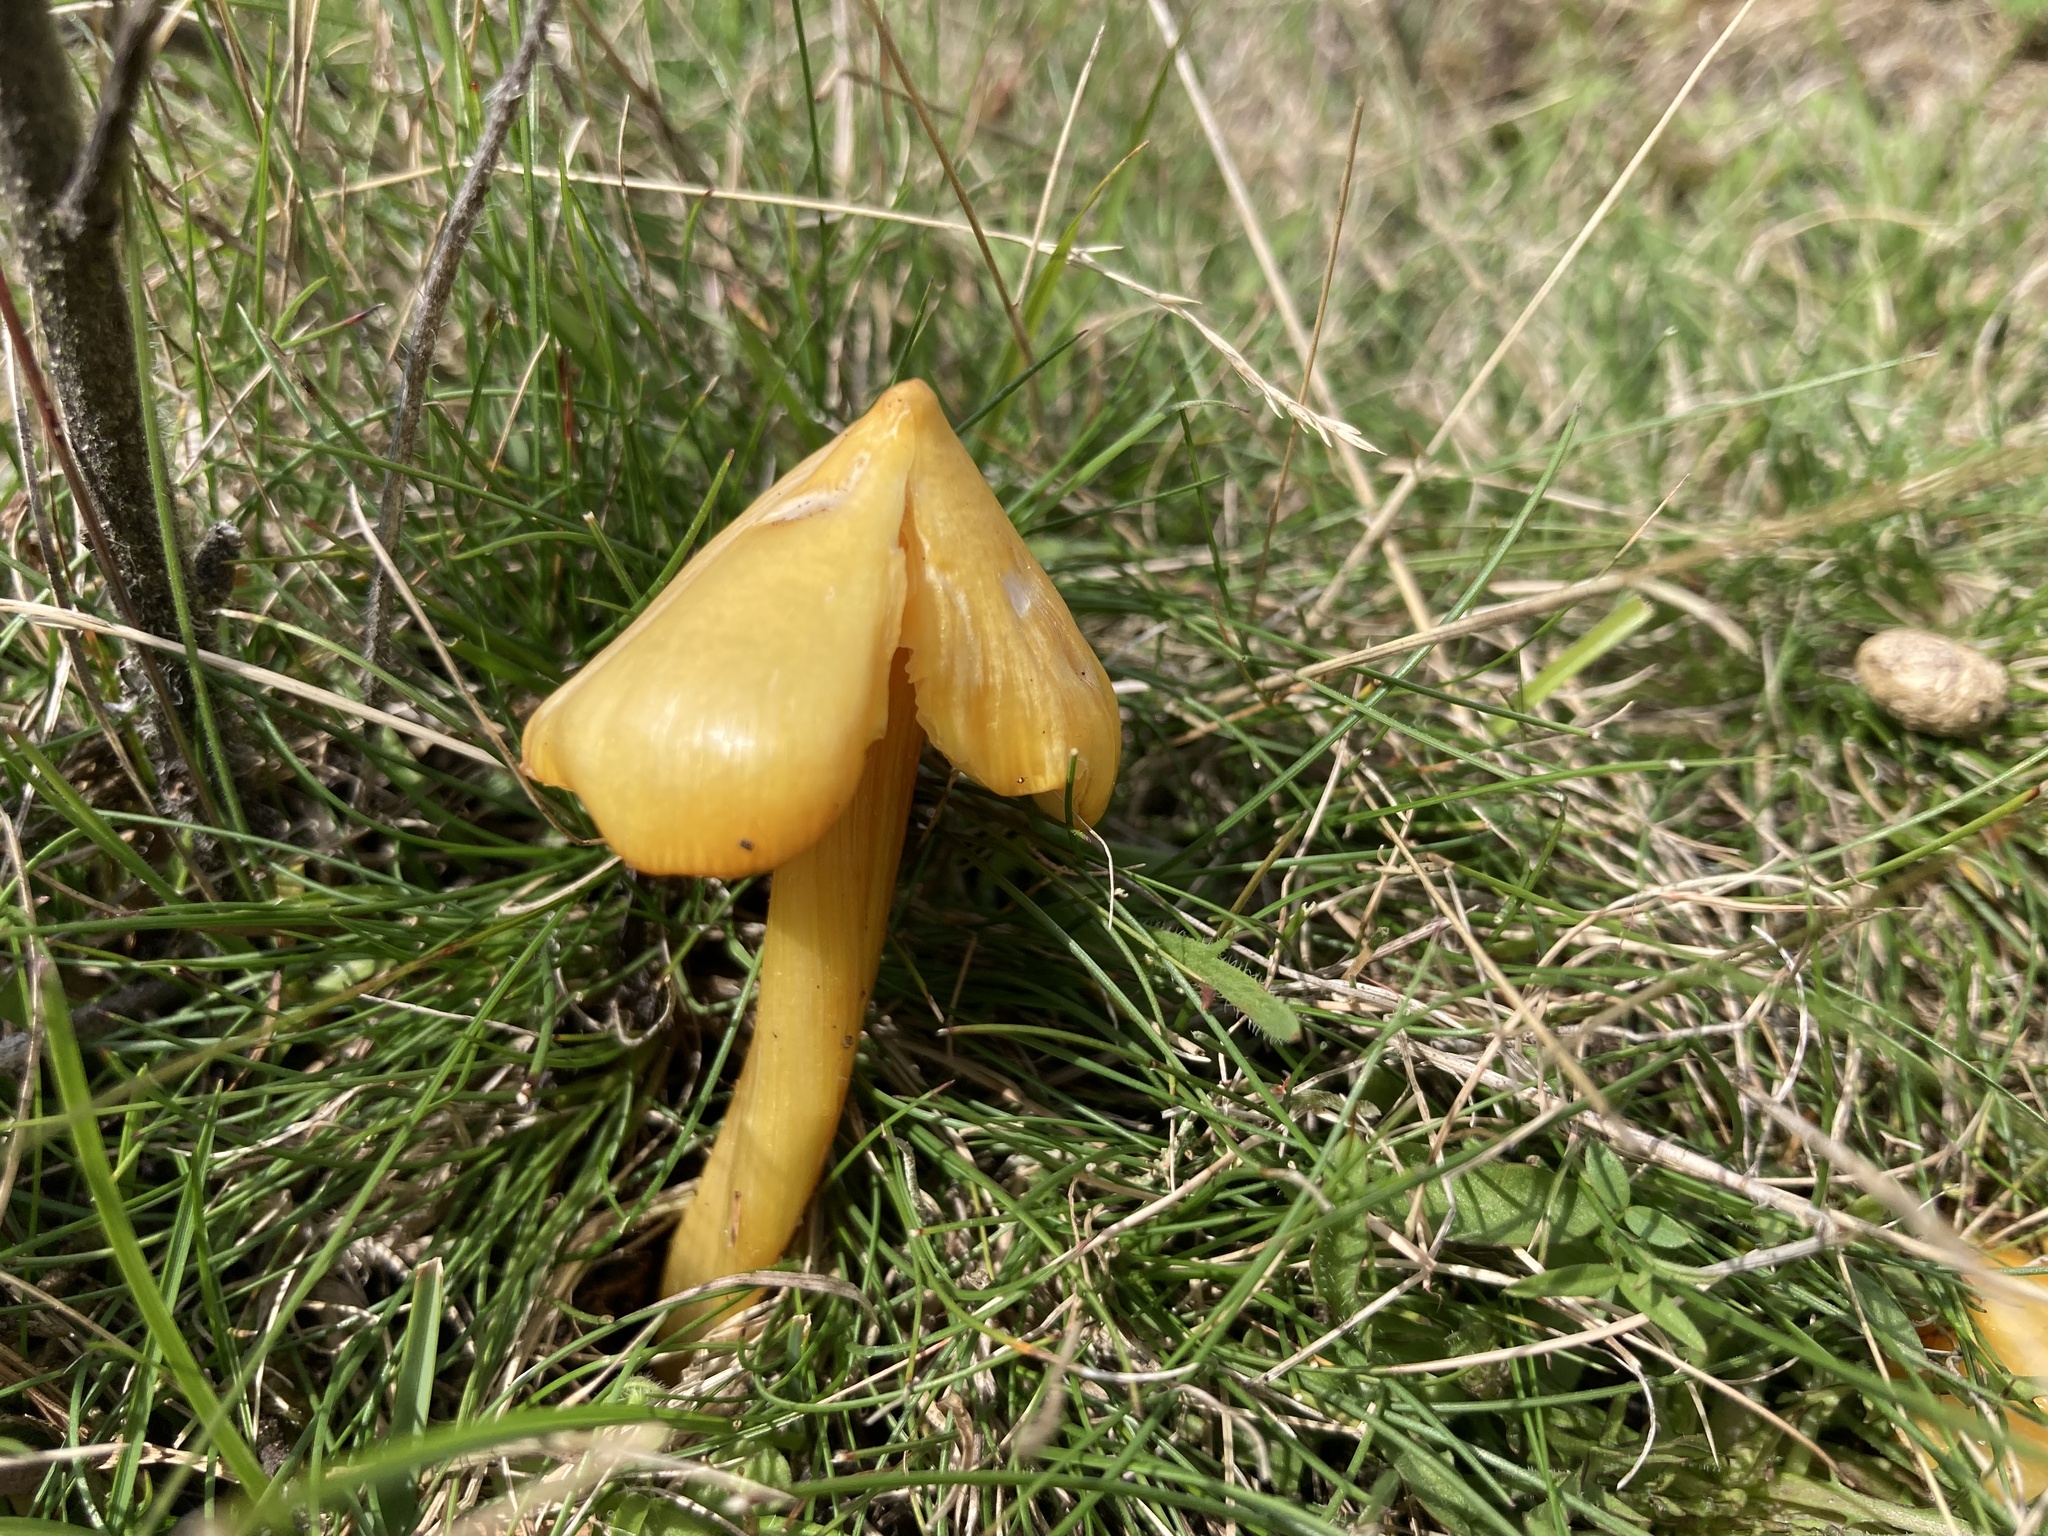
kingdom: Fungi
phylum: Basidiomycota
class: Agaricomycetes
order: Agaricales
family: Hygrophoraceae
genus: Hygrocybe
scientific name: Hygrocybe acutoconica
